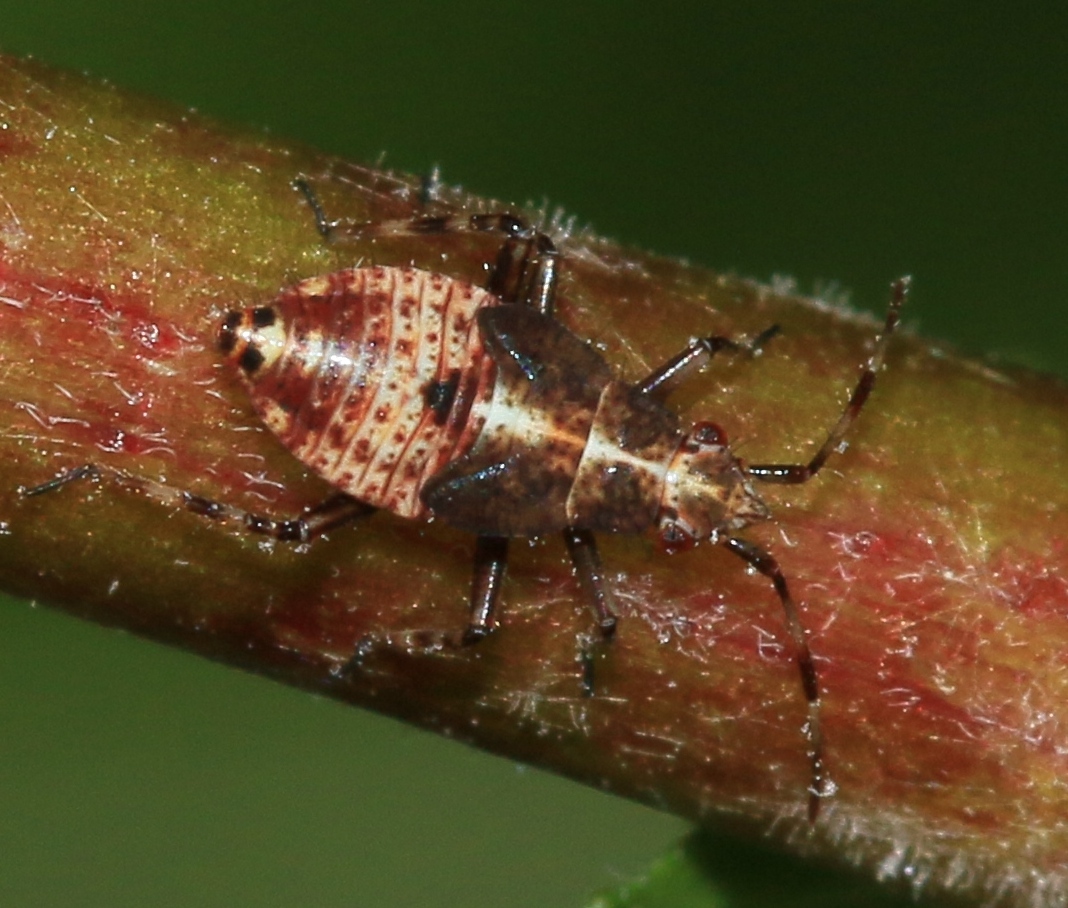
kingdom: Animalia
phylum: Arthropoda
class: Insecta
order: Hemiptera
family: Miridae
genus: Deraeocoris
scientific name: Deraeocoris flavilinea
